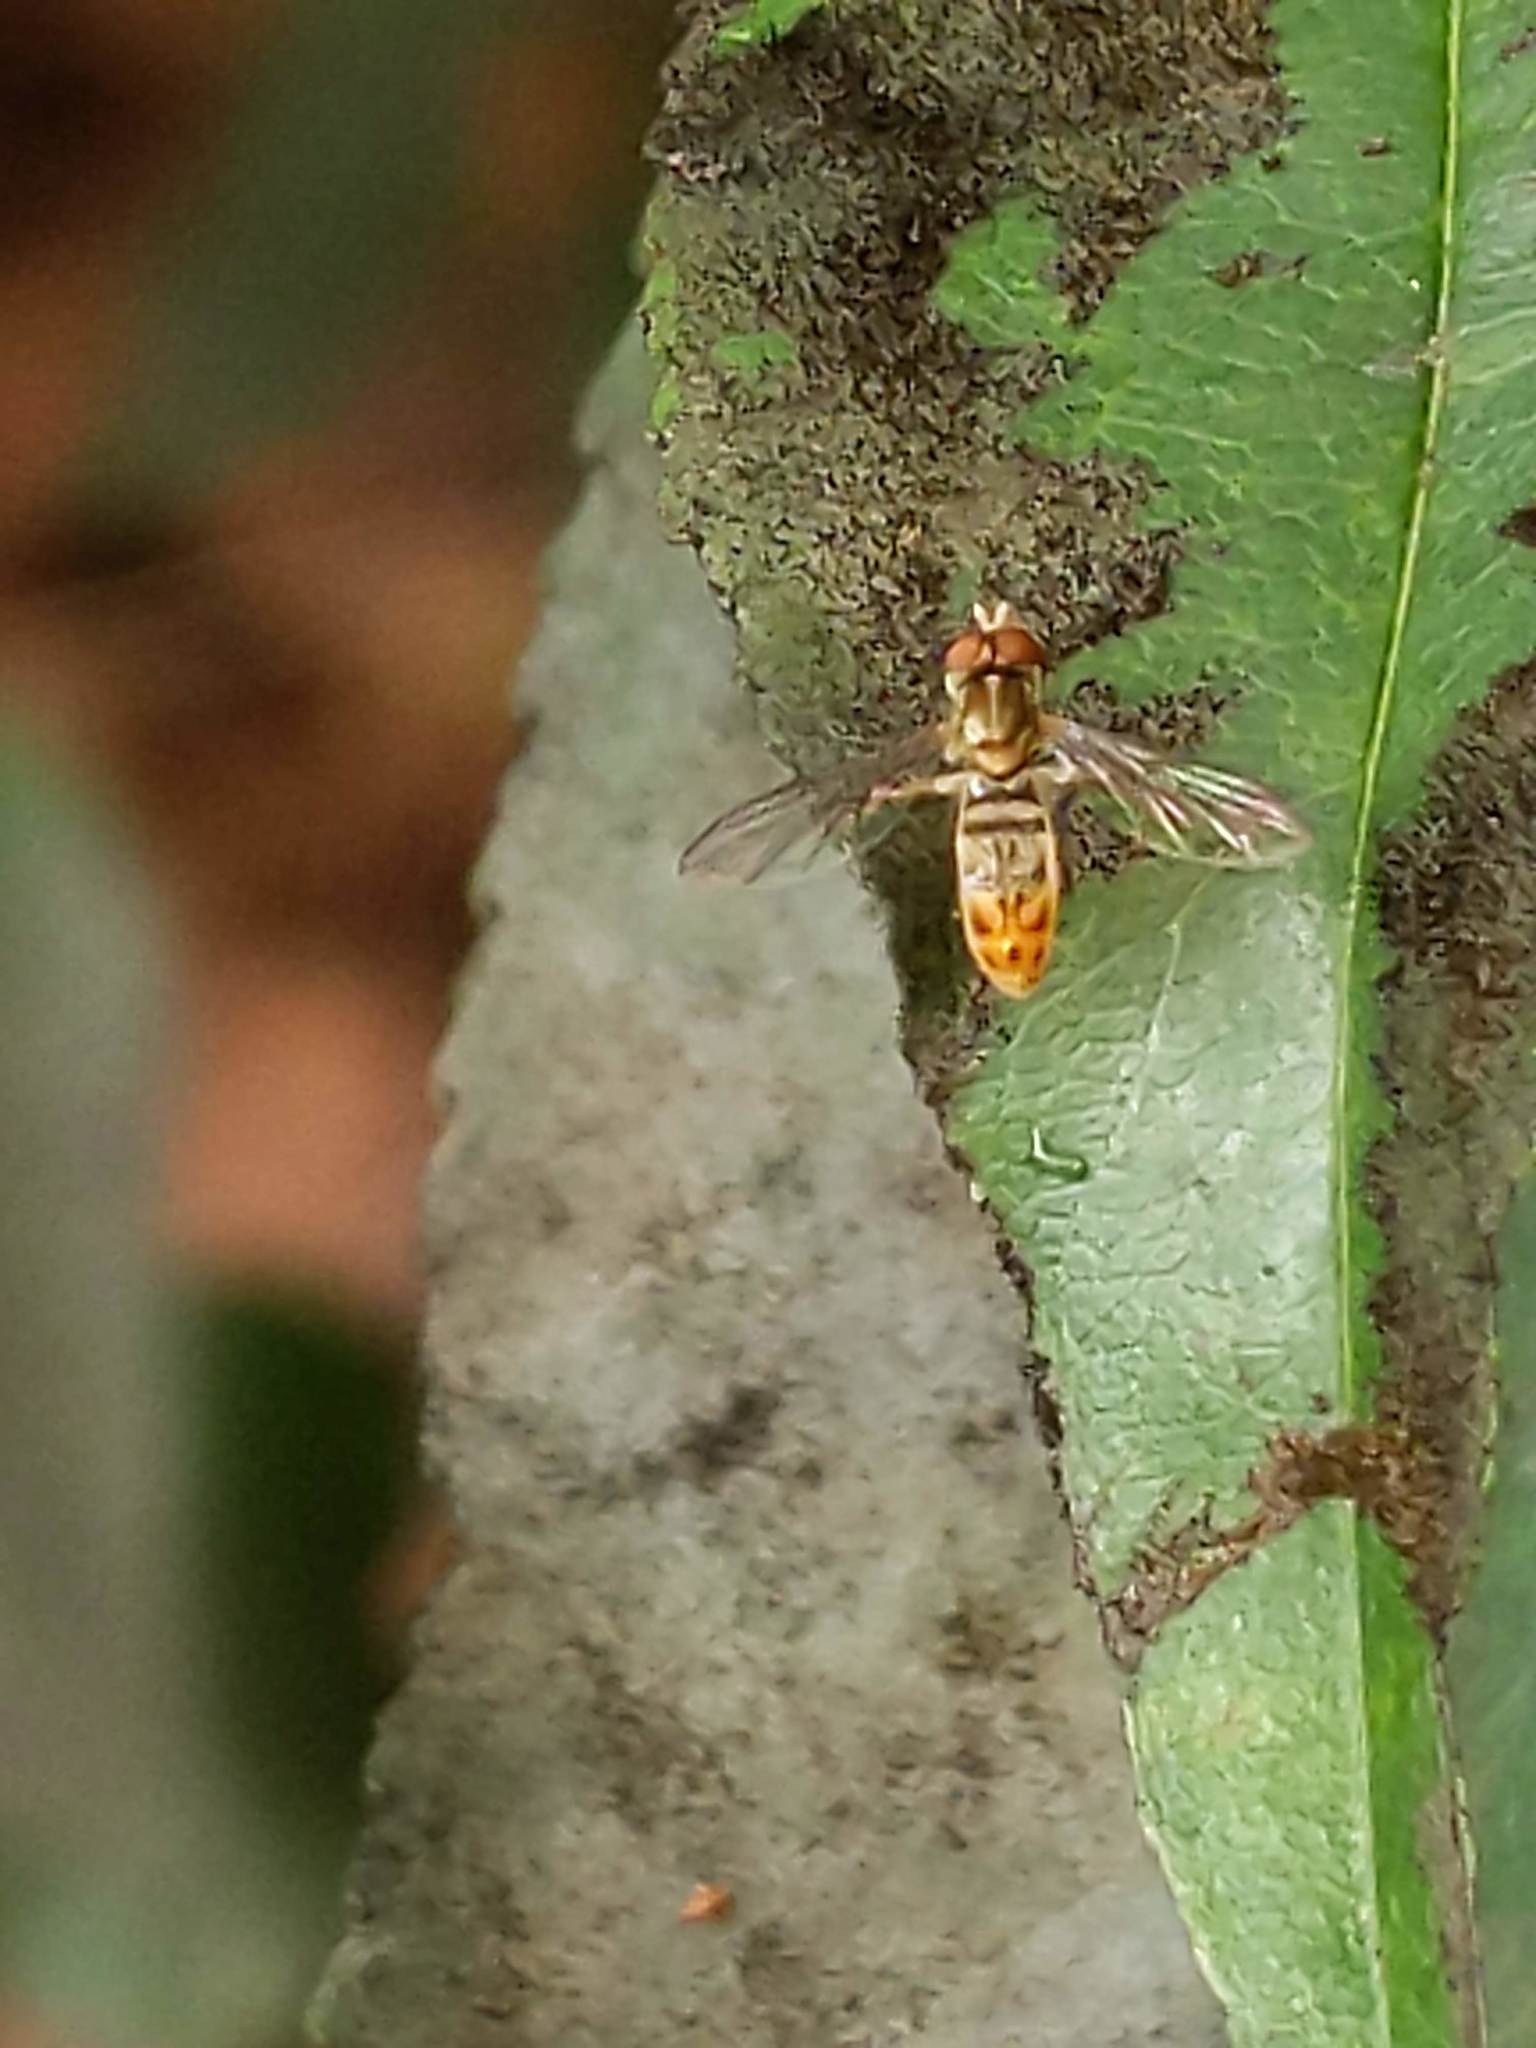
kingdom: Animalia
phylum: Arthropoda
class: Insecta
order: Diptera
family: Syrphidae
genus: Toxomerus
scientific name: Toxomerus marginatus
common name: Syrphid fly
